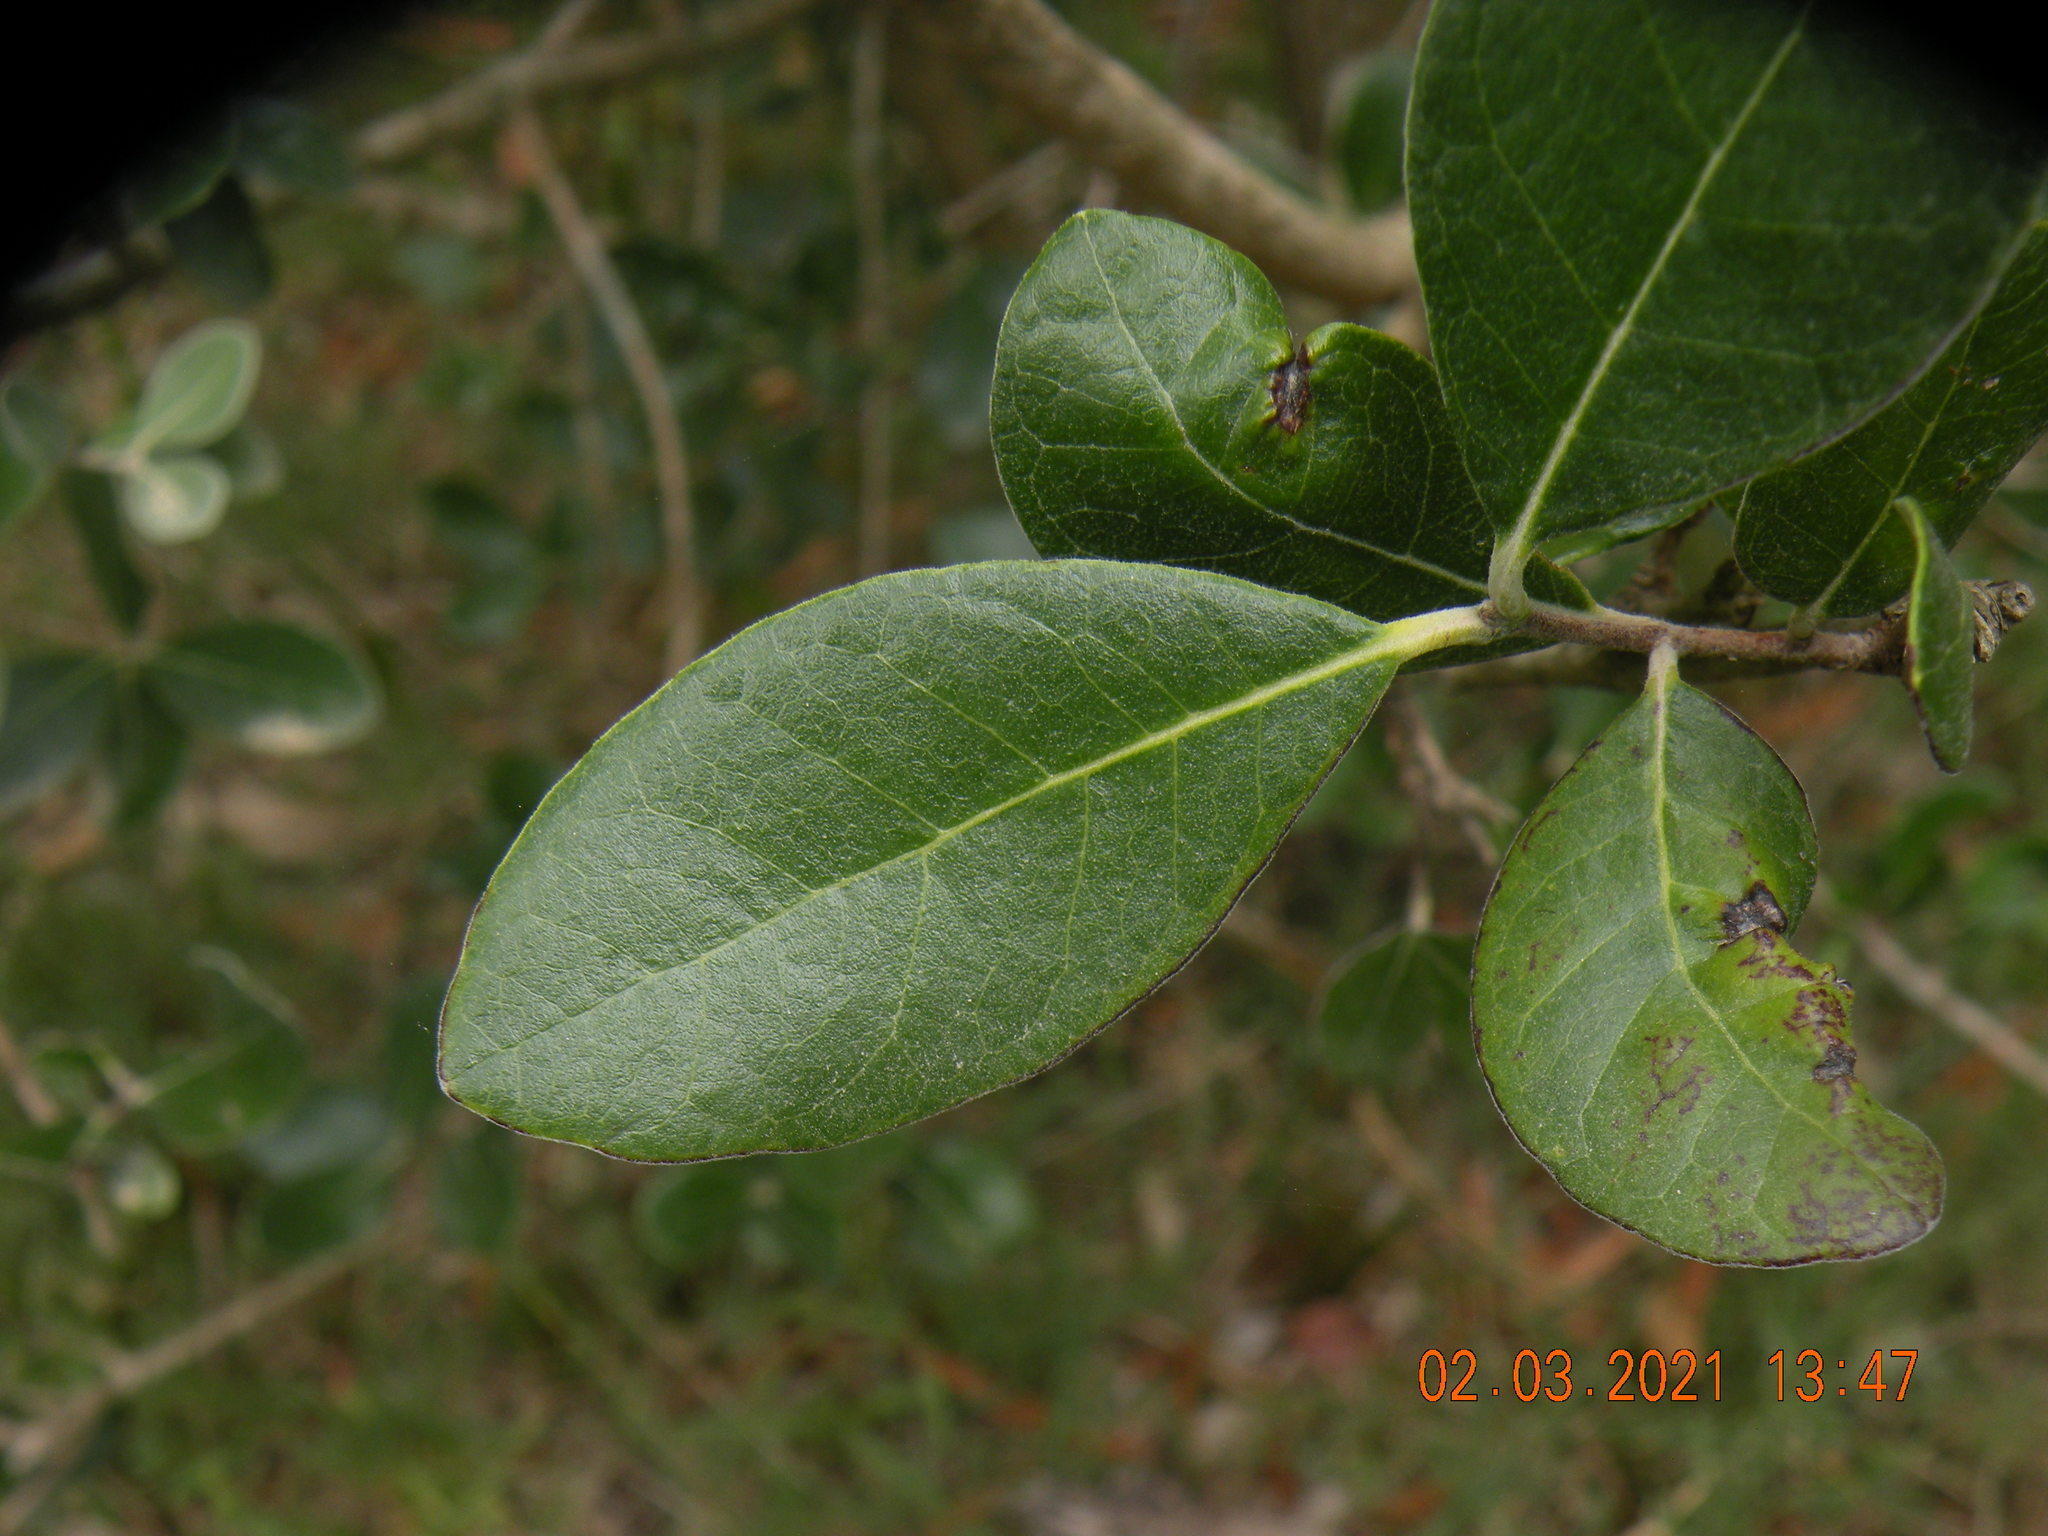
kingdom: Plantae
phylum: Tracheophyta
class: Magnoliopsida
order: Myrtales
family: Myrtaceae
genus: Feijoa
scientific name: Feijoa sellowiana
